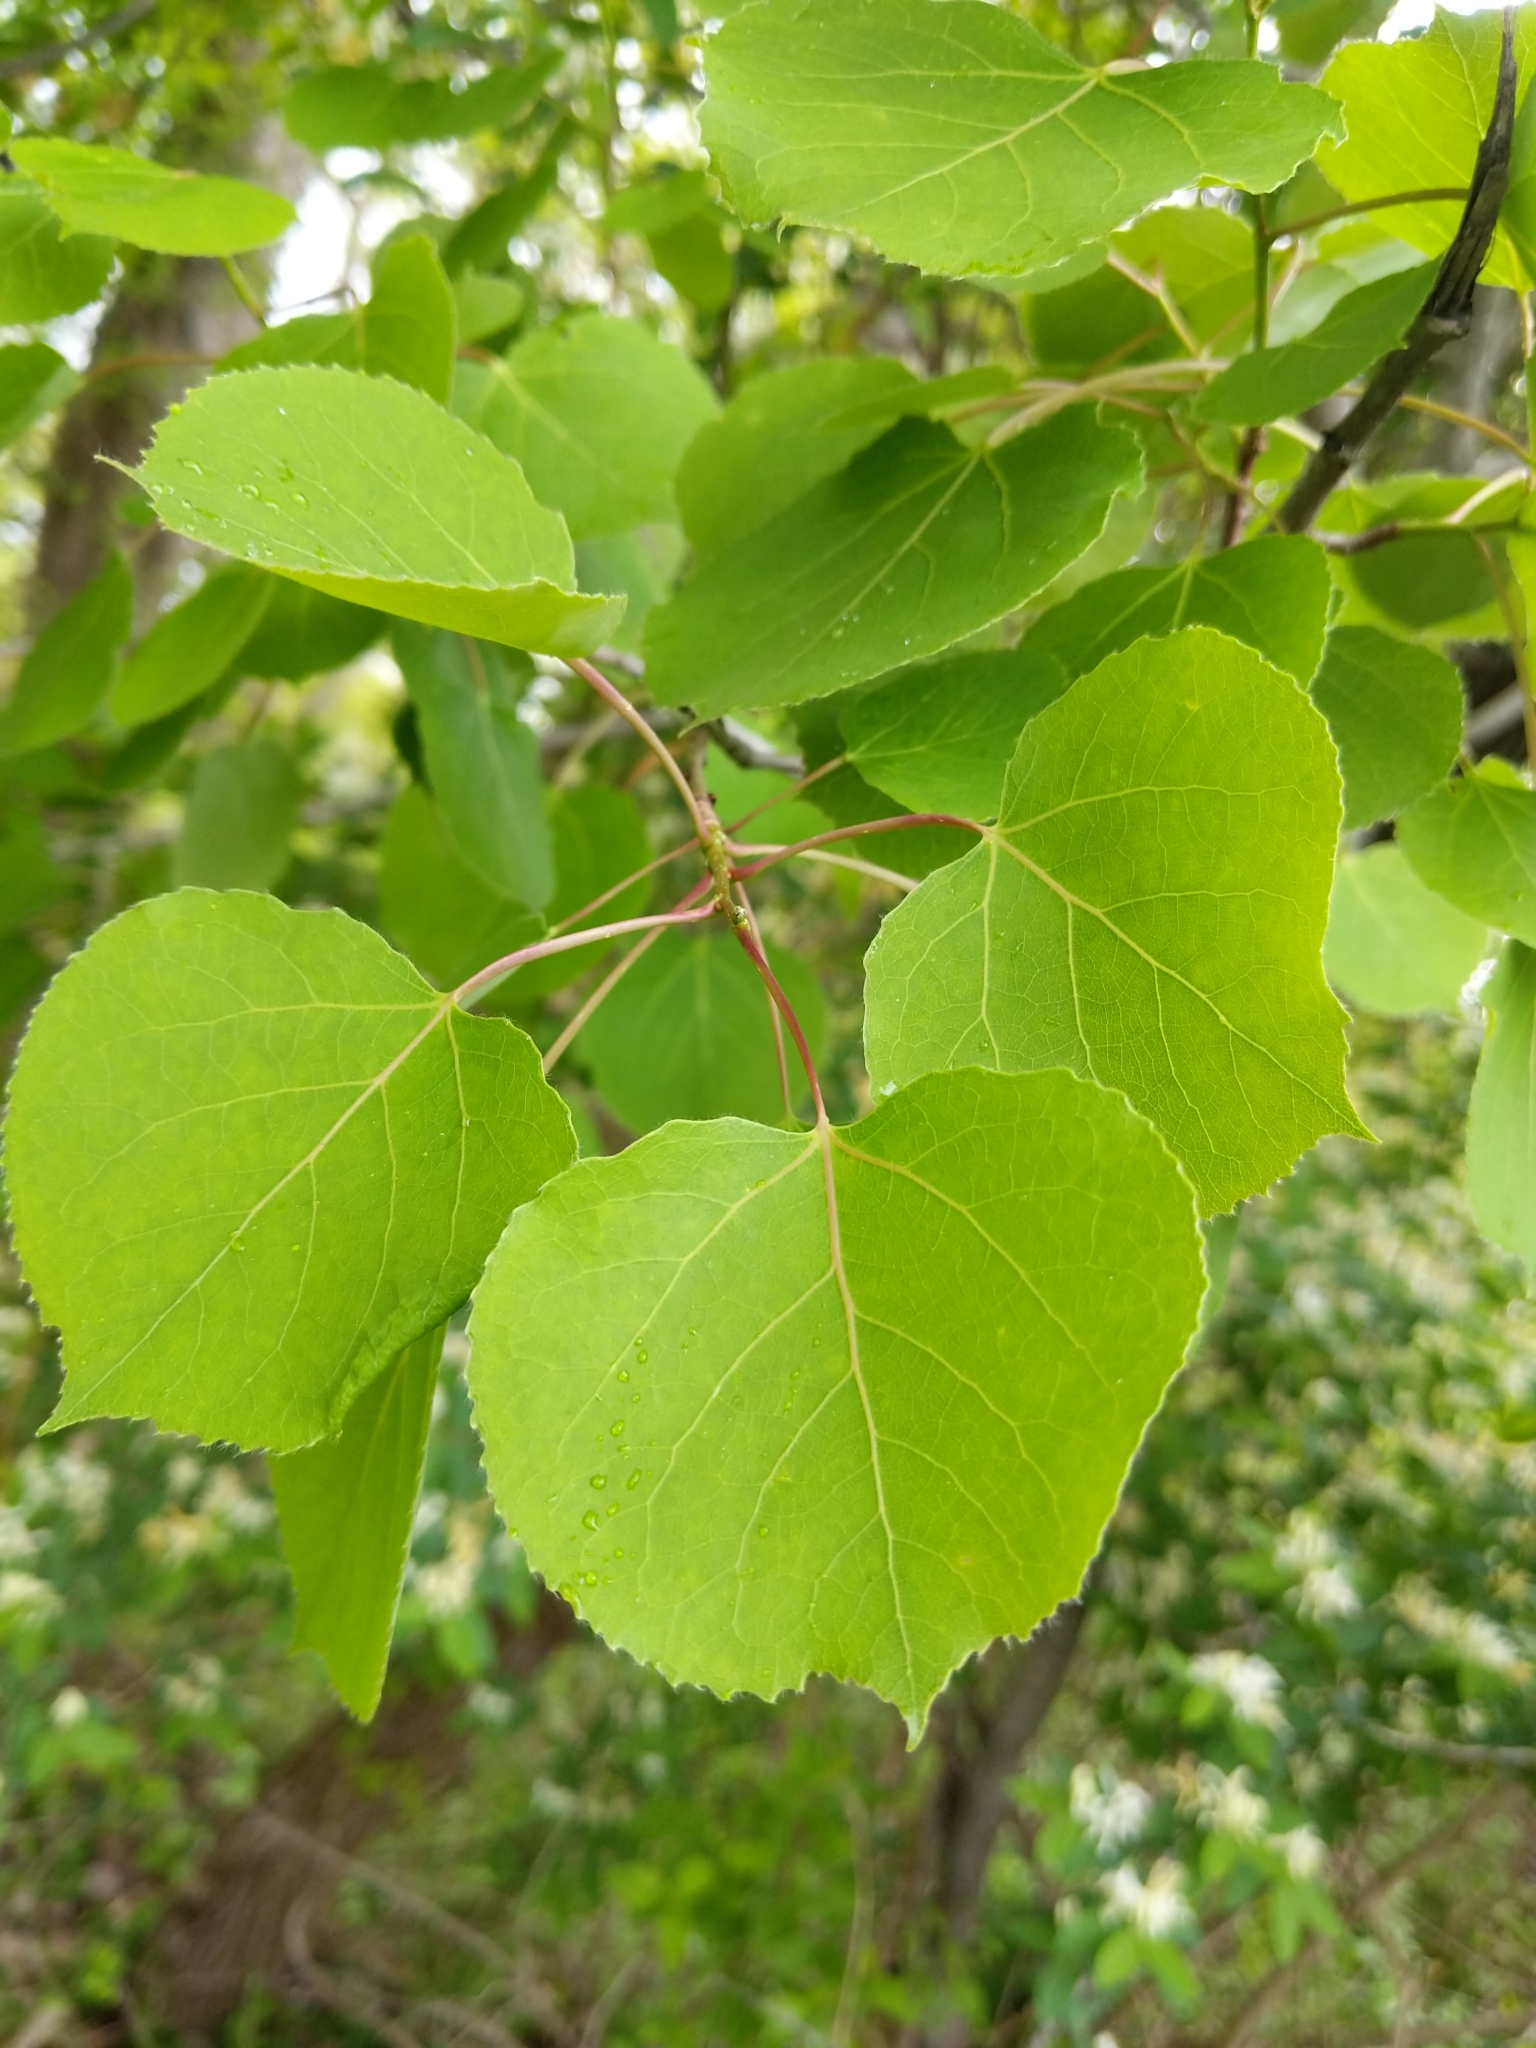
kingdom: Plantae
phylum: Tracheophyta
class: Magnoliopsida
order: Malpighiales
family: Salicaceae
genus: Populus
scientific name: Populus tremuloides
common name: Quaking aspen
